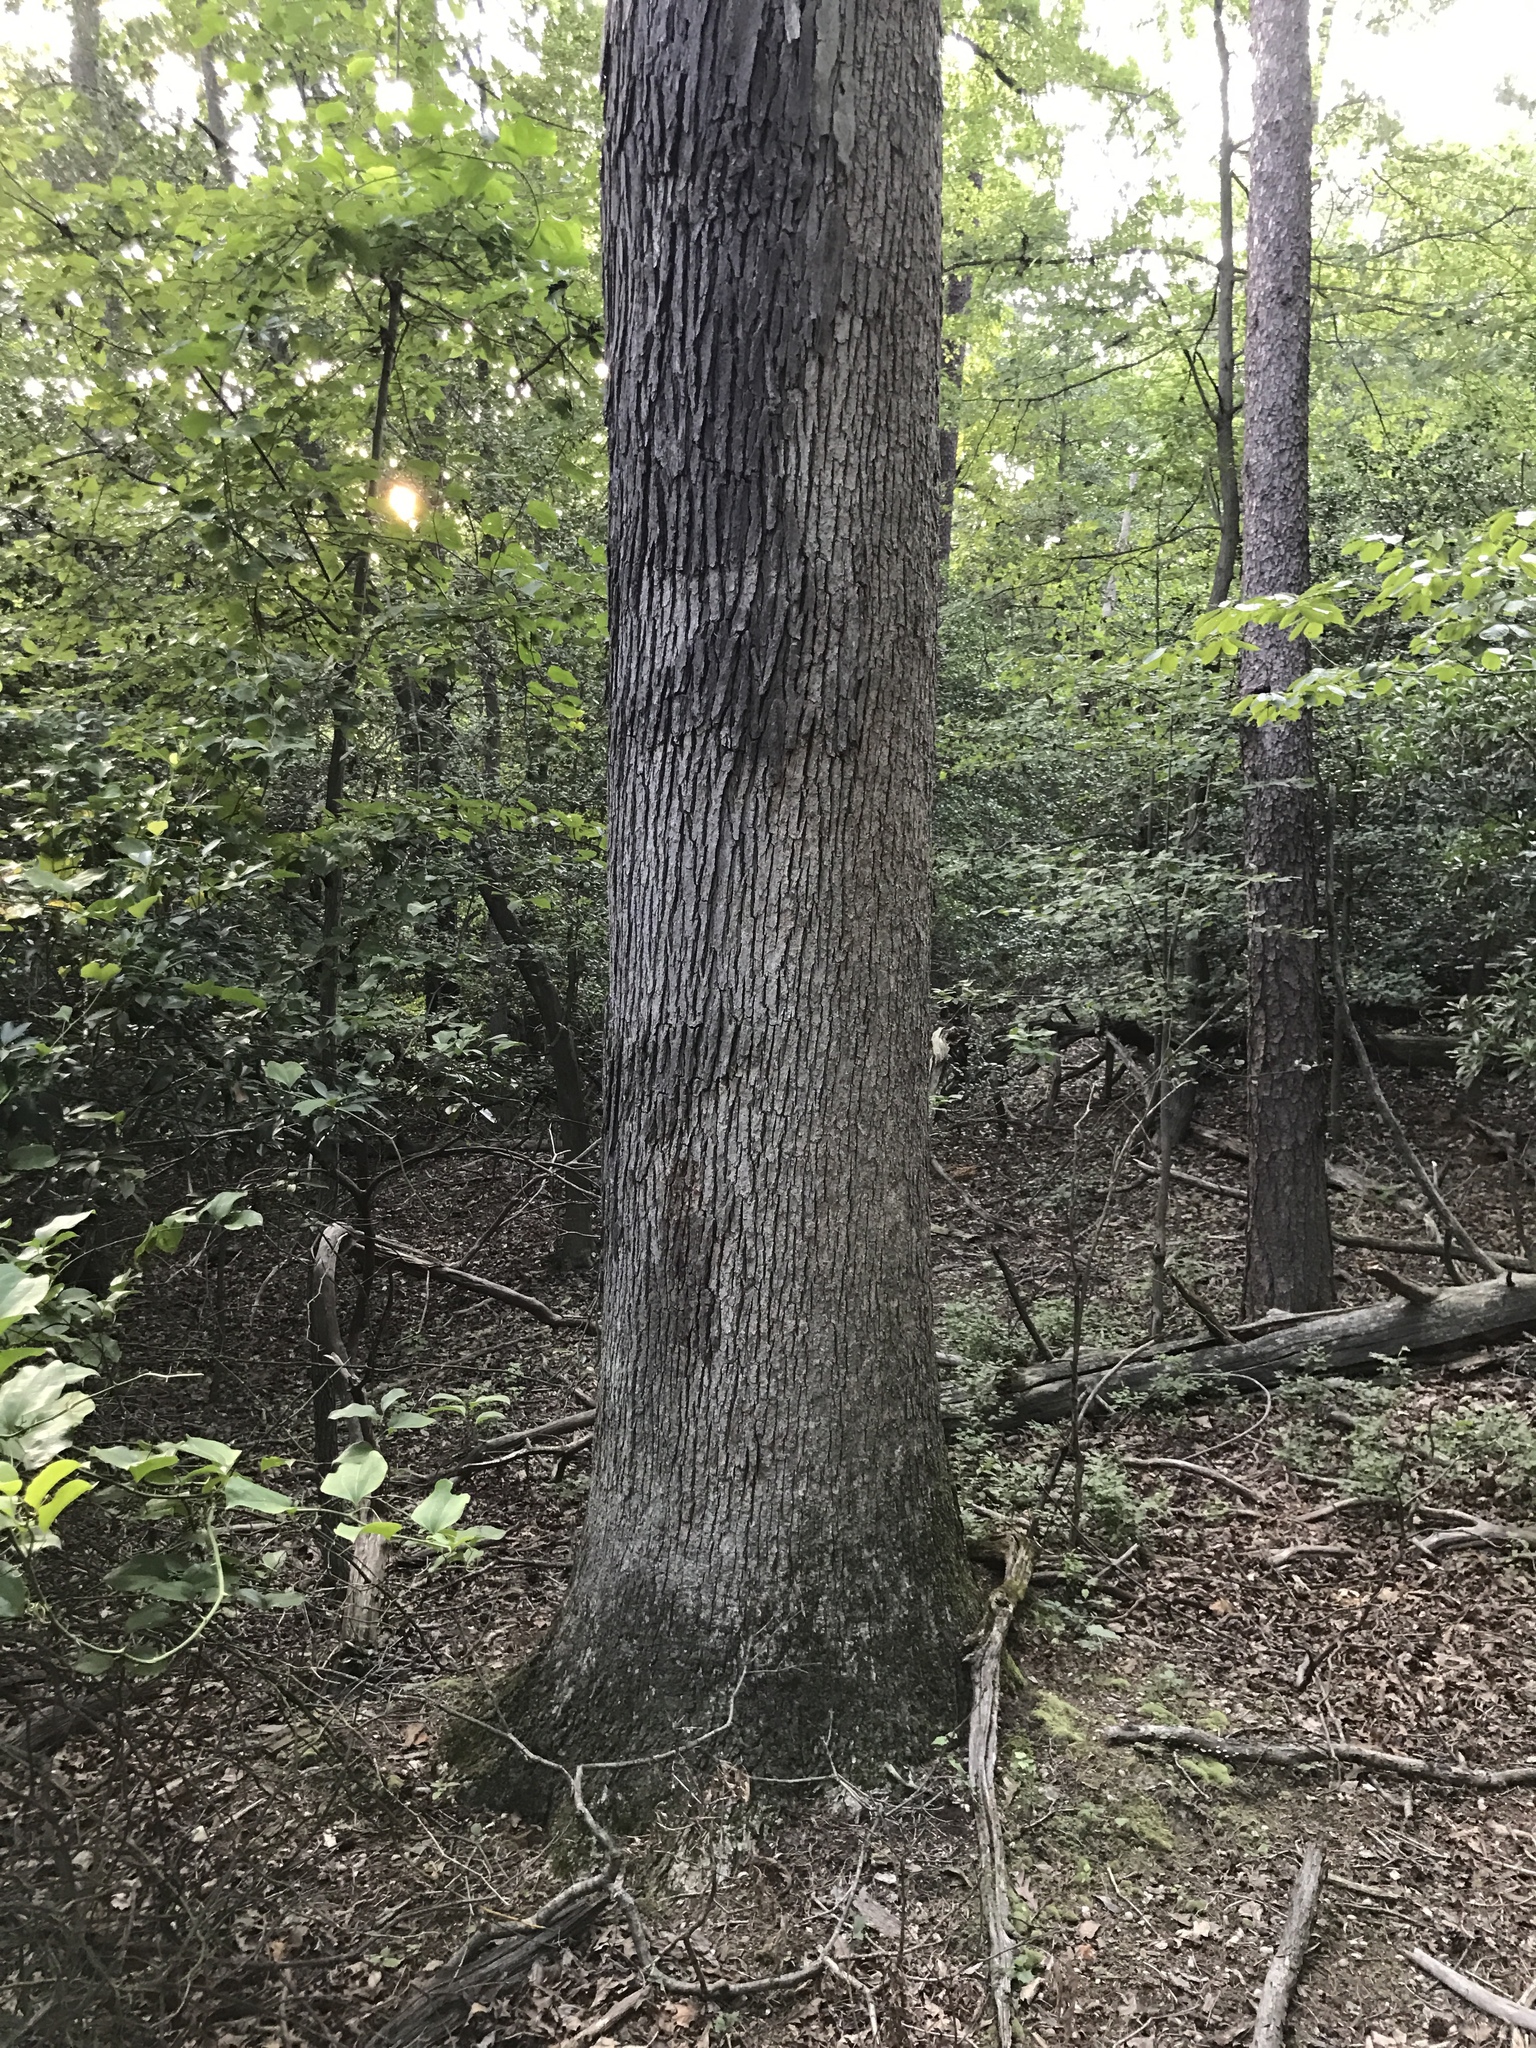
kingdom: Plantae
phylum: Tracheophyta
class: Magnoliopsida
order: Fagales
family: Fagaceae
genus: Quercus
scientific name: Quercus alba
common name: White oak
